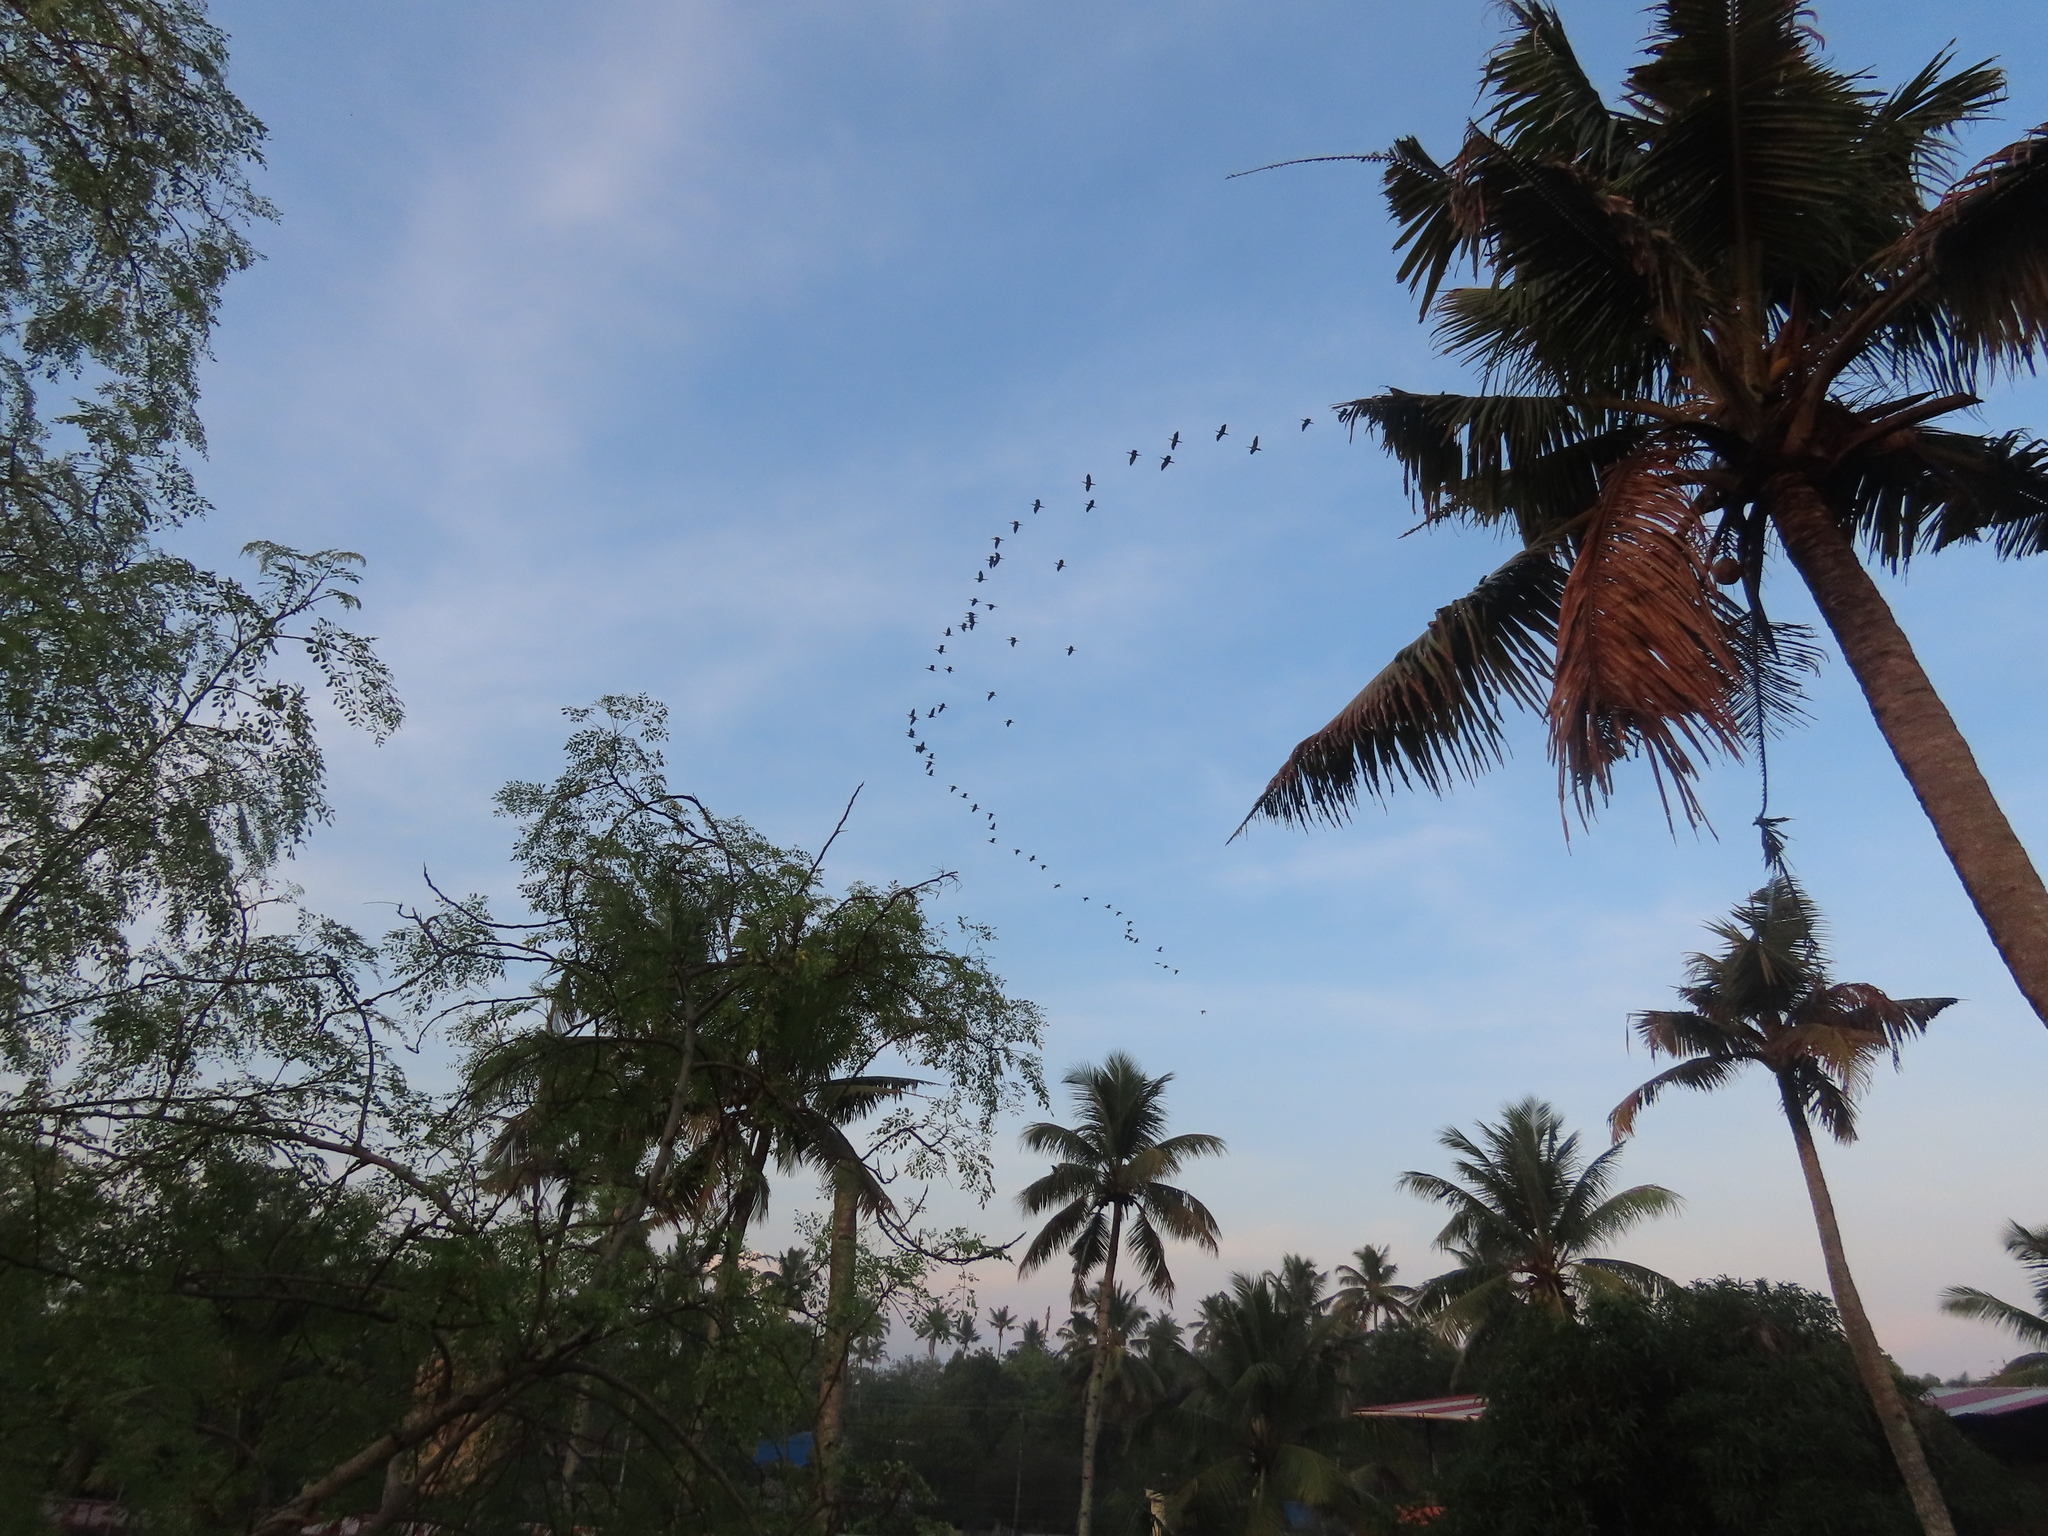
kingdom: Animalia
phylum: Chordata
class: Aves
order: Suliformes
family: Phalacrocoracidae
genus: Phalacrocorax
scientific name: Phalacrocorax fuscicollis
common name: Indian cormorant
